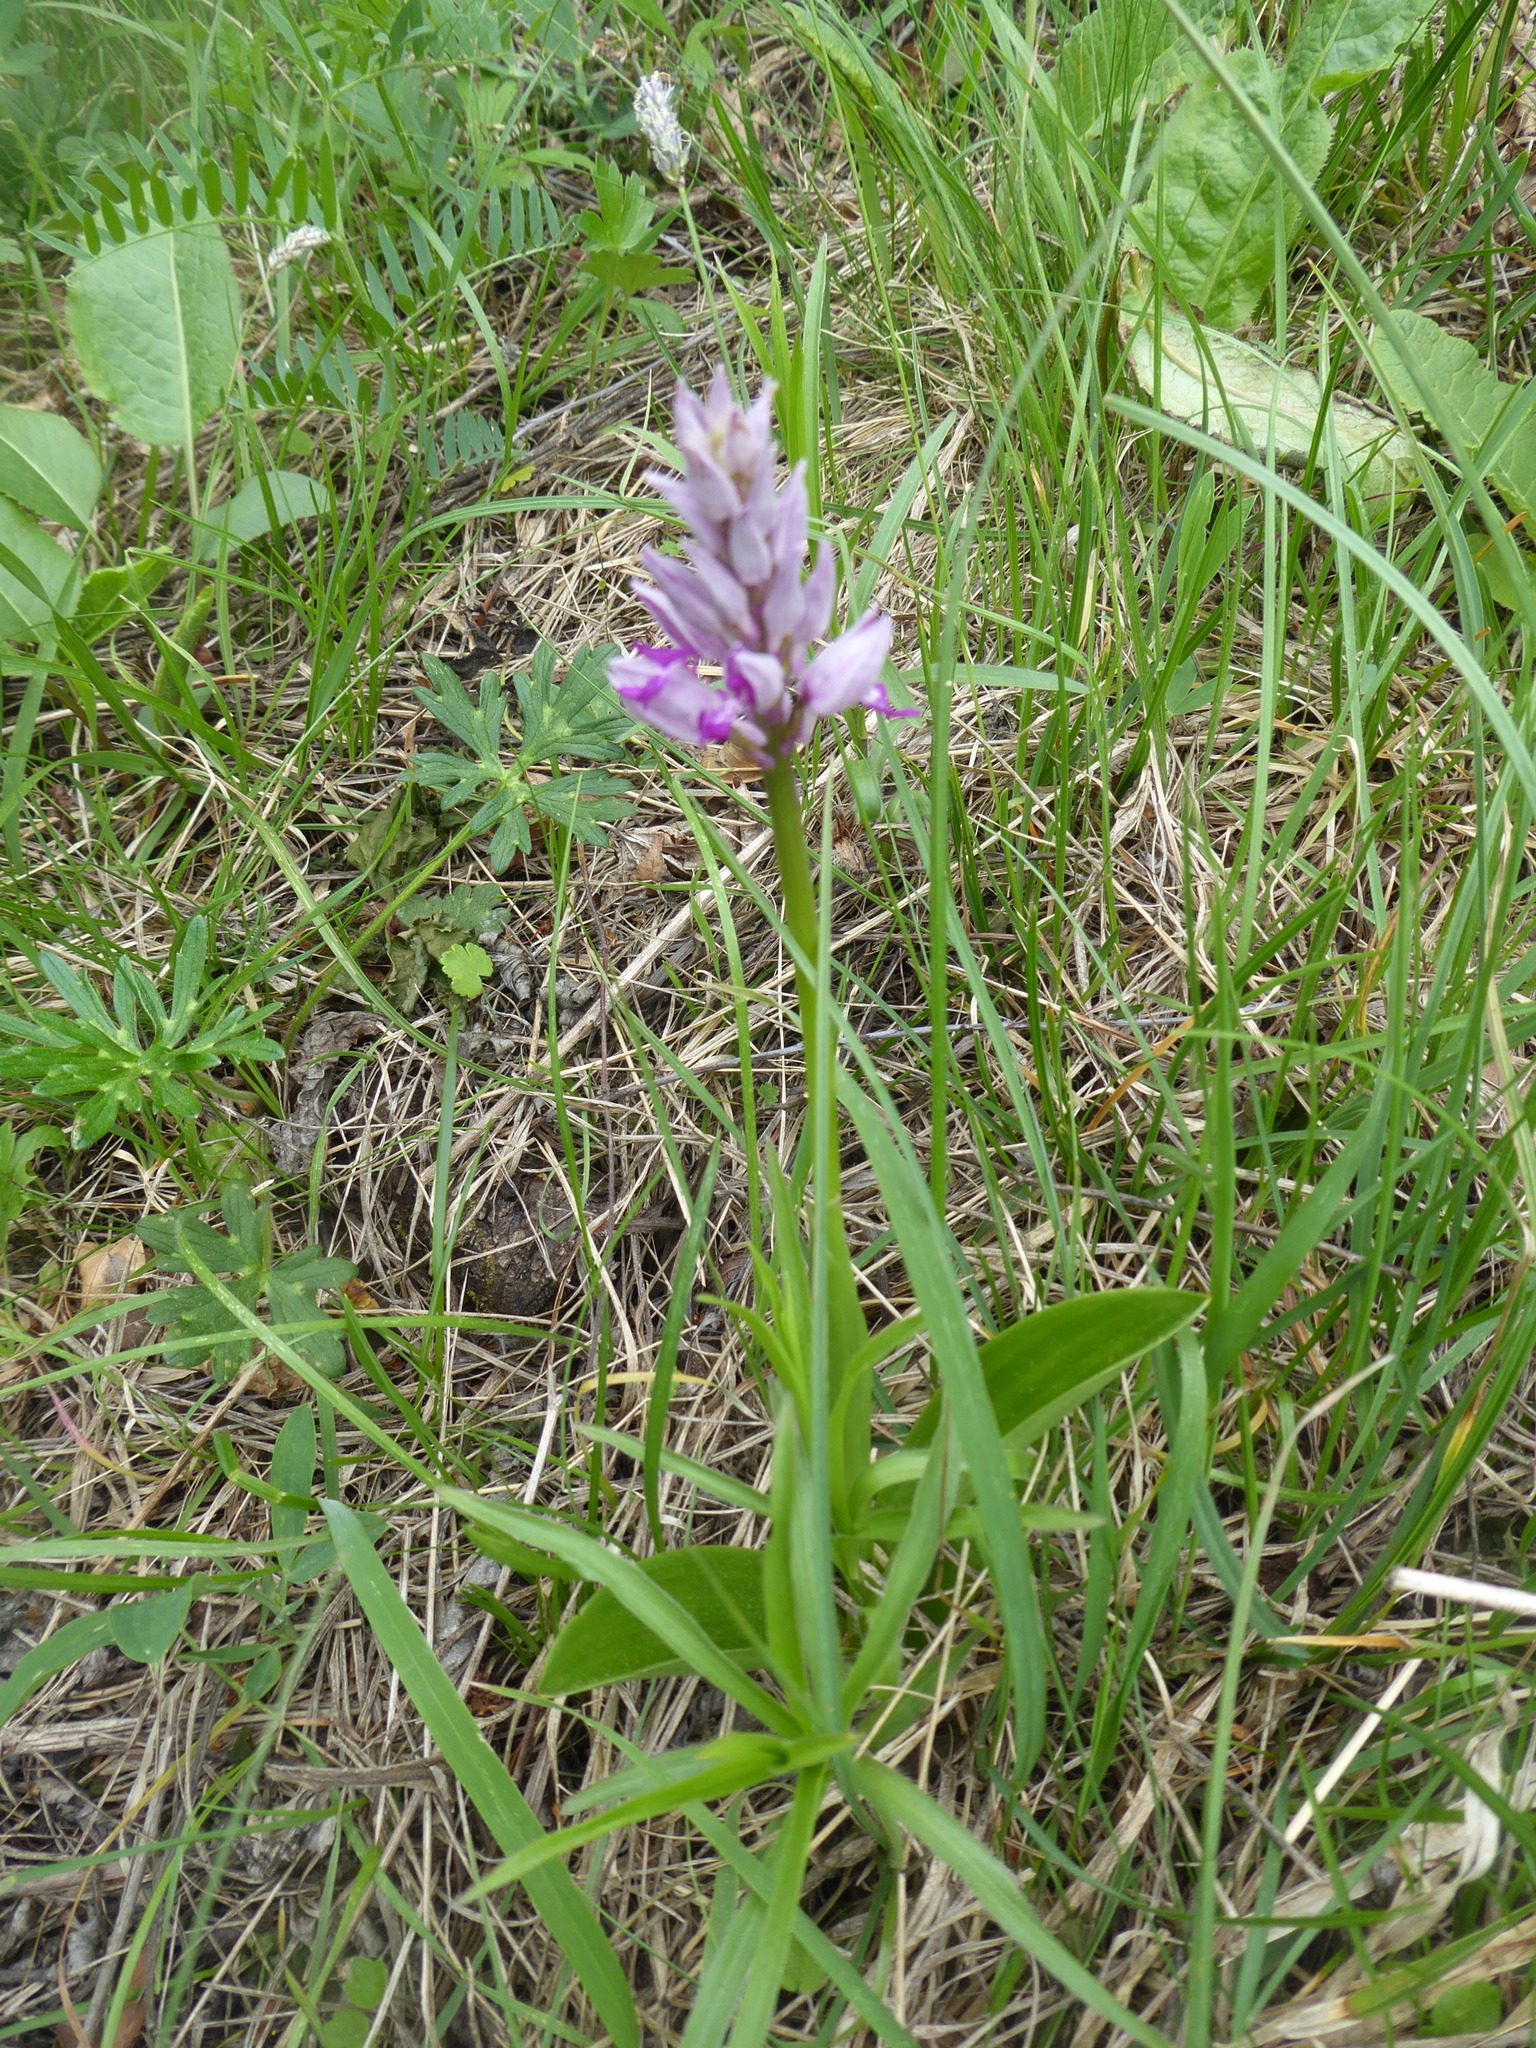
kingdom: Plantae
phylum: Tracheophyta
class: Liliopsida
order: Asparagales
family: Orchidaceae
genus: Orchis
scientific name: Orchis militaris
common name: Military orchid
